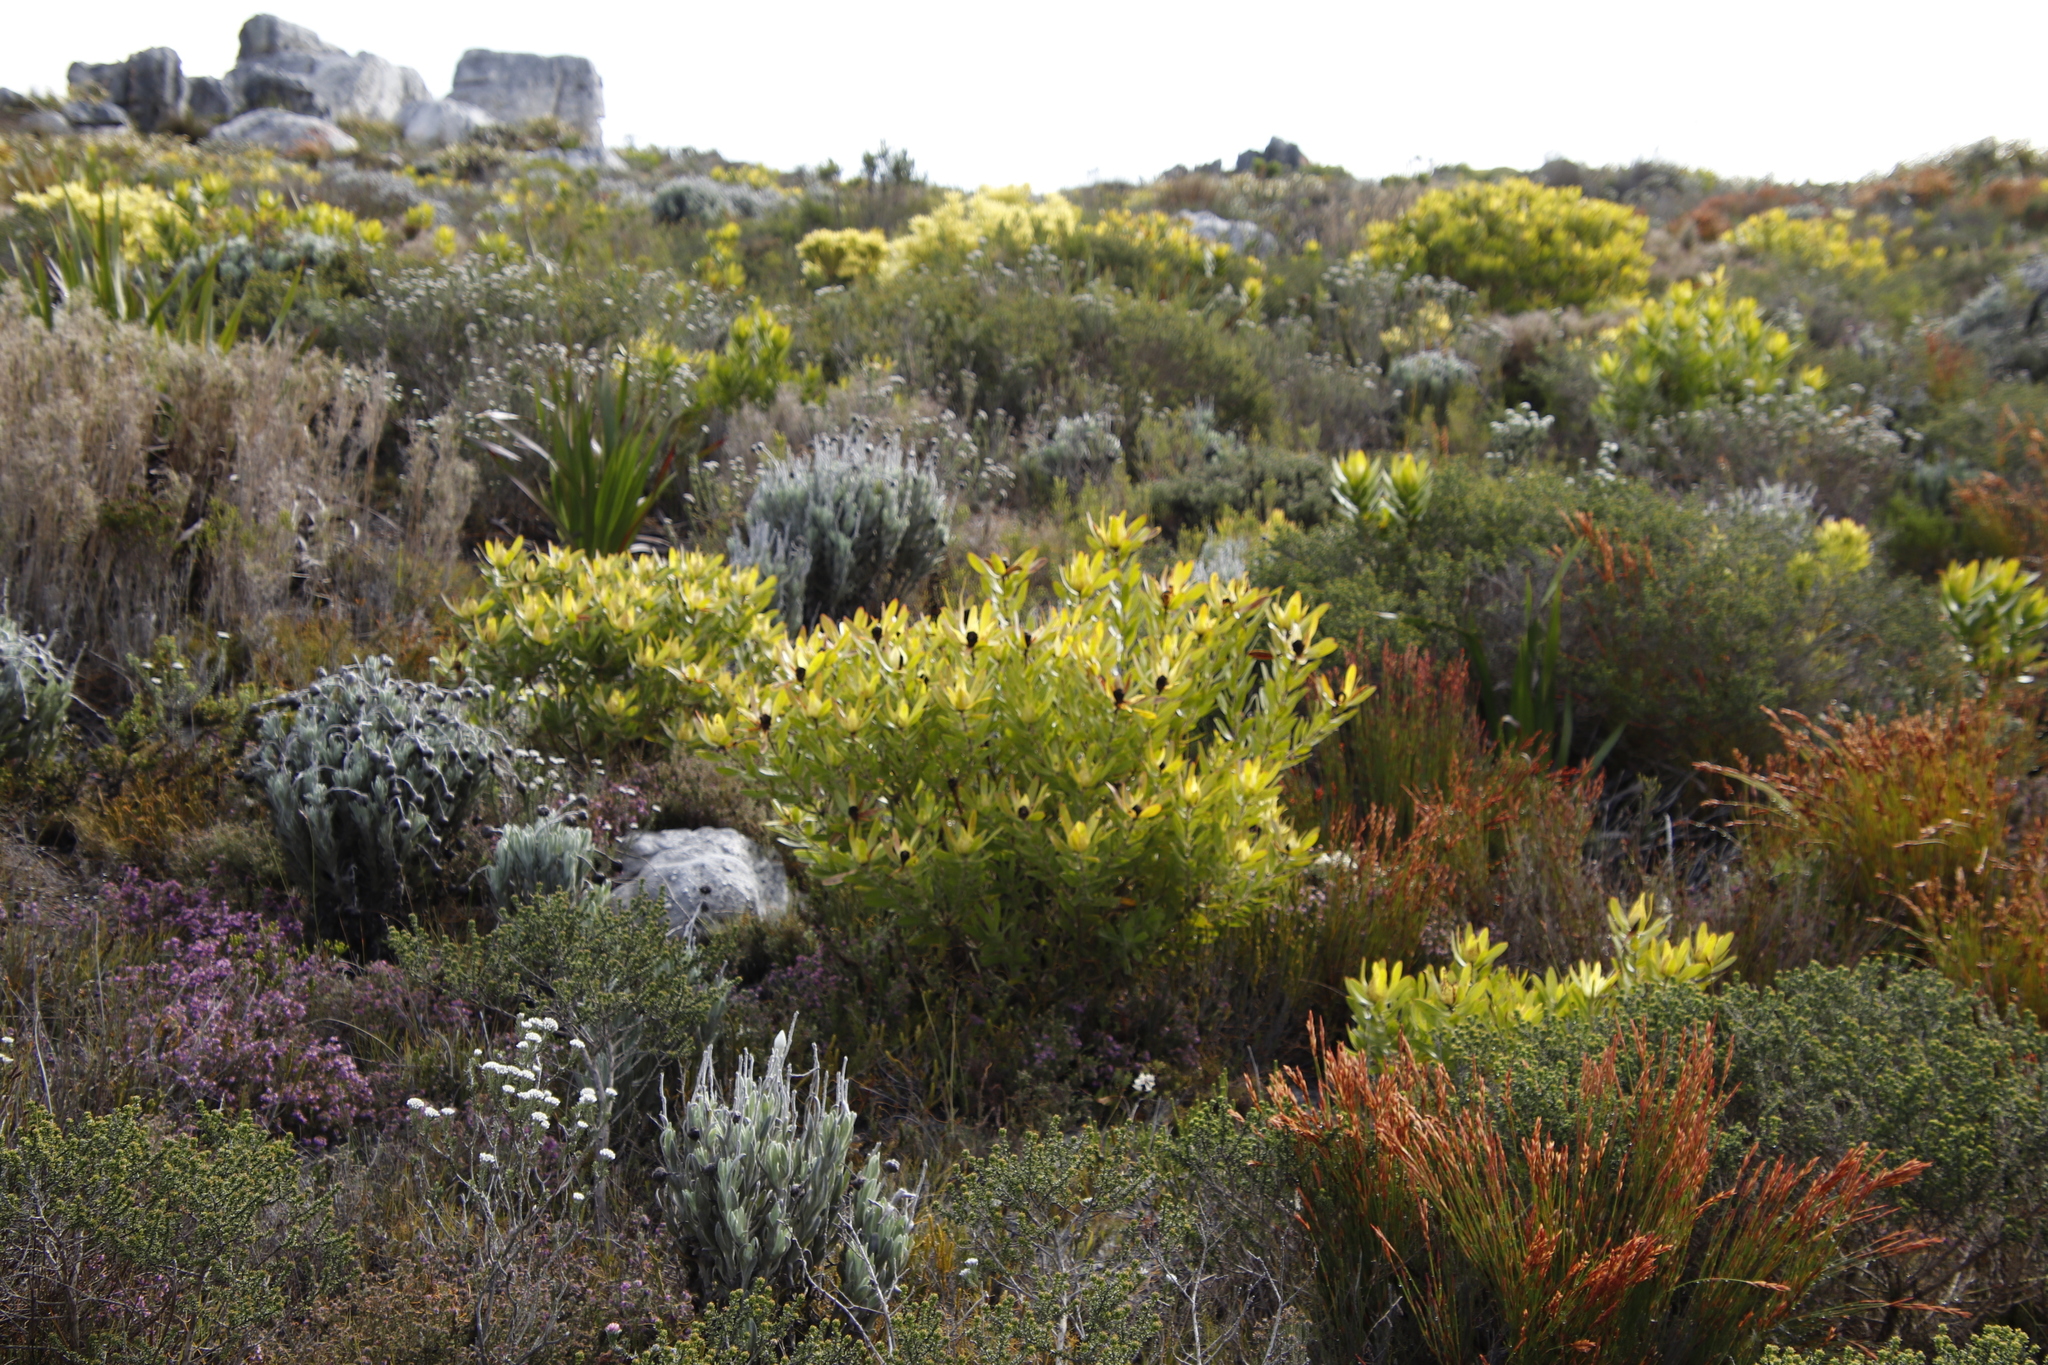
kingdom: Plantae
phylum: Tracheophyta
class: Magnoliopsida
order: Proteales
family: Proteaceae
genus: Leucadendron
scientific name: Leucadendron laureolum
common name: Golden sunshinebush
